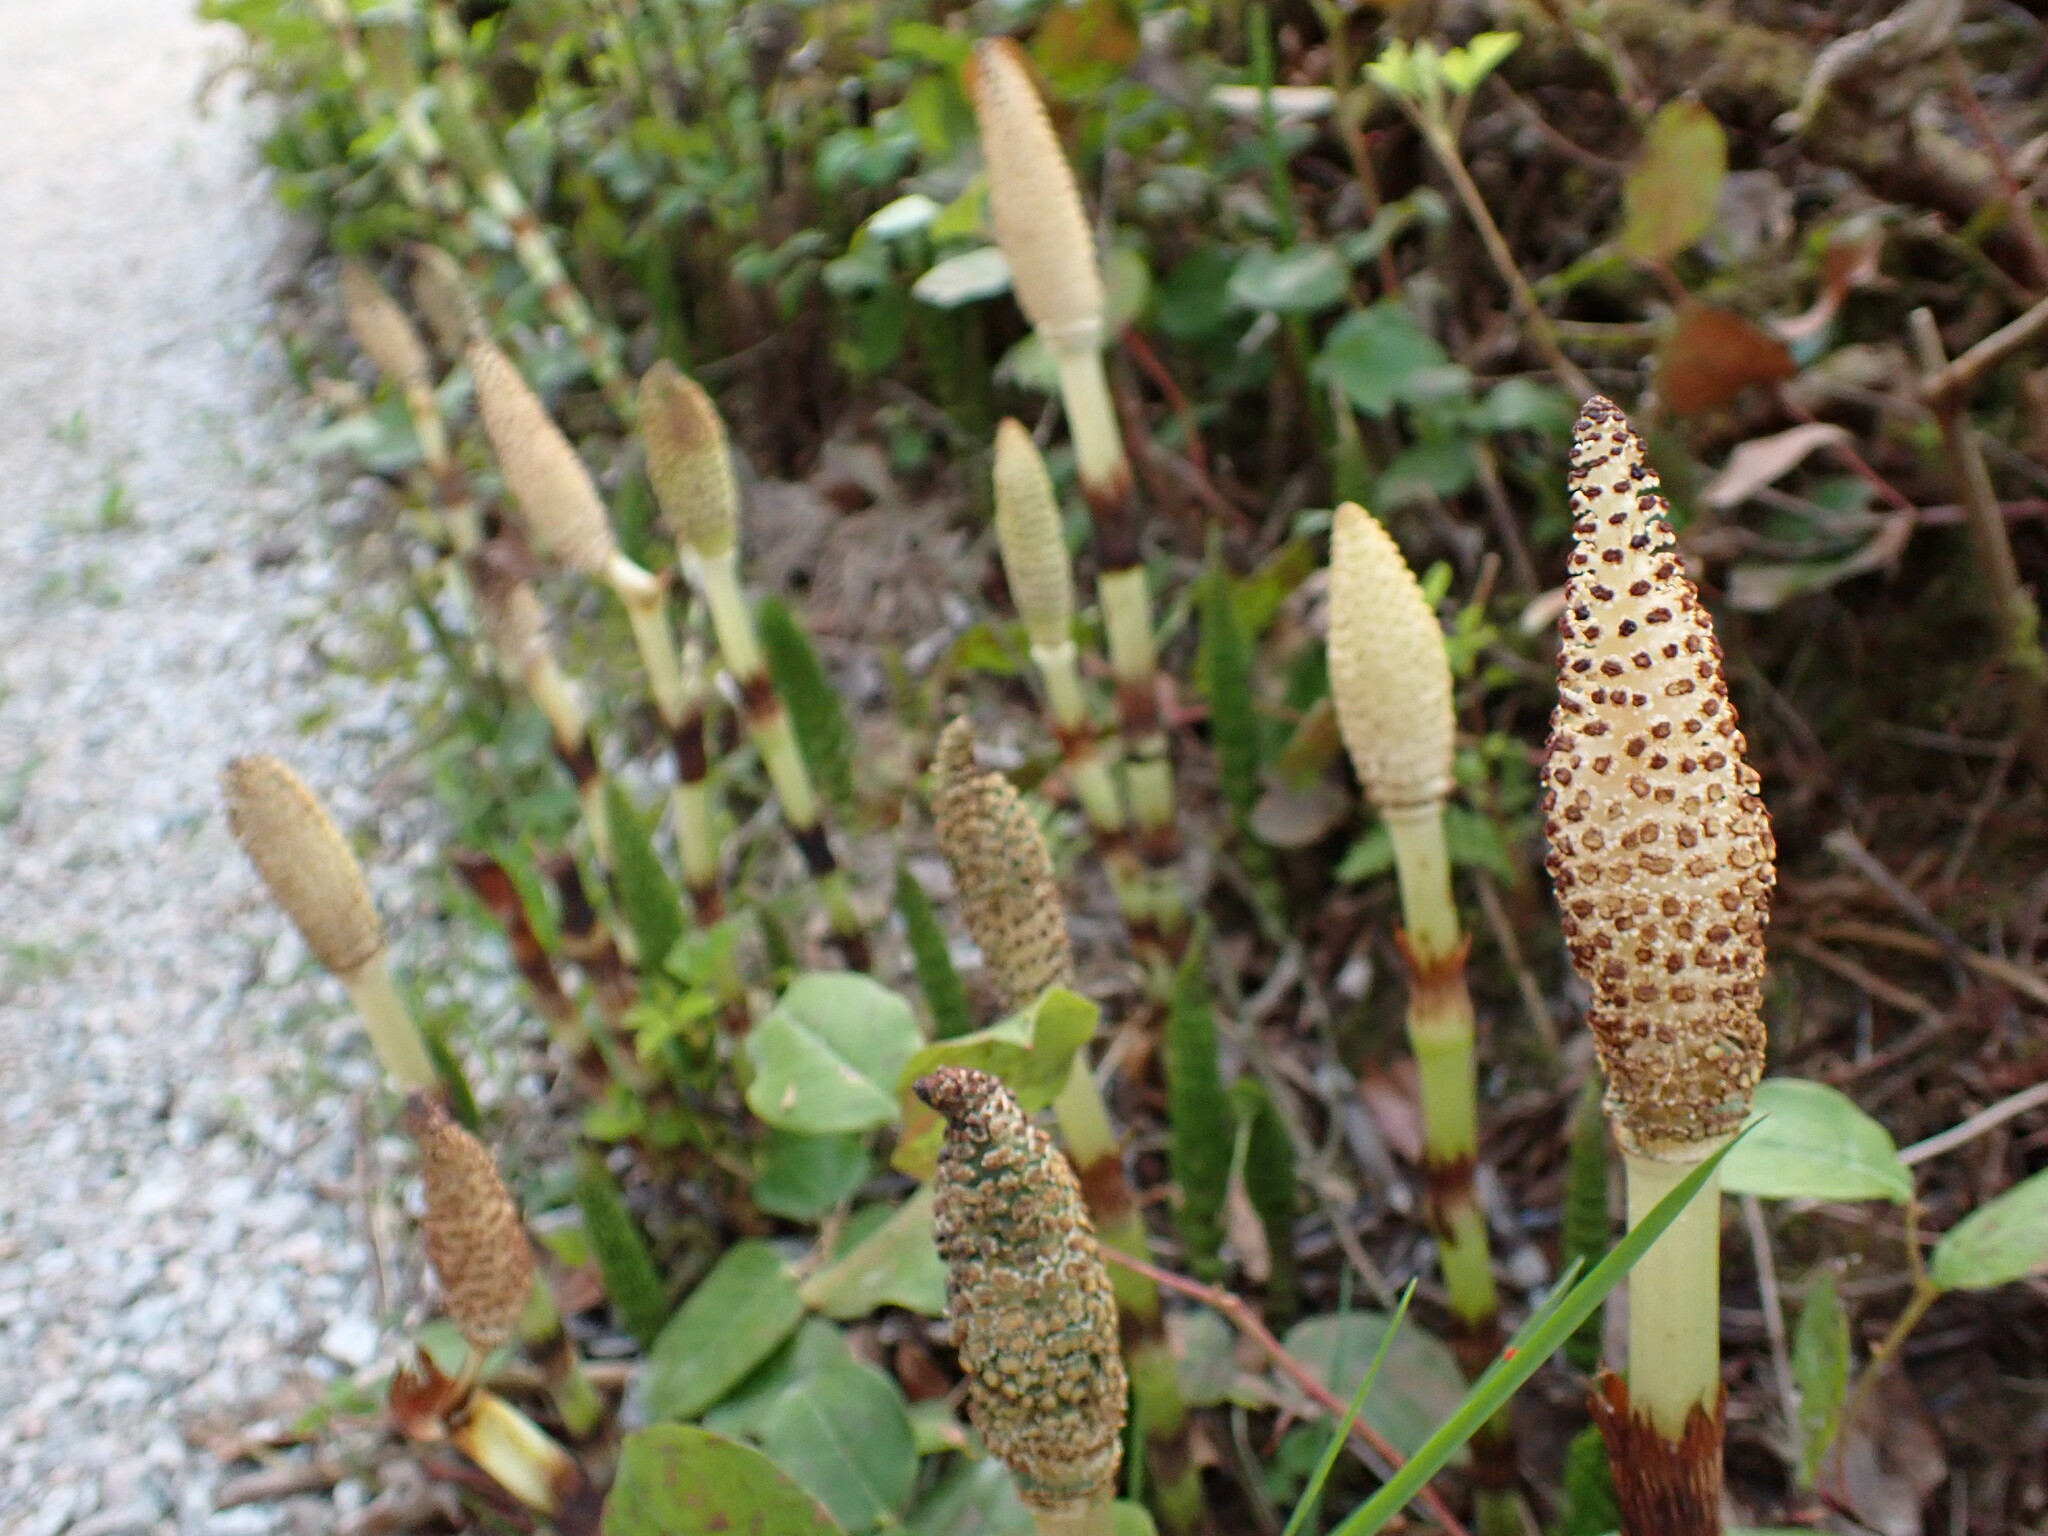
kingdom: Plantae
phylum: Tracheophyta
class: Polypodiopsida
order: Equisetales
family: Equisetaceae
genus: Equisetum
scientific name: Equisetum braunii
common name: Braun's horsetail
